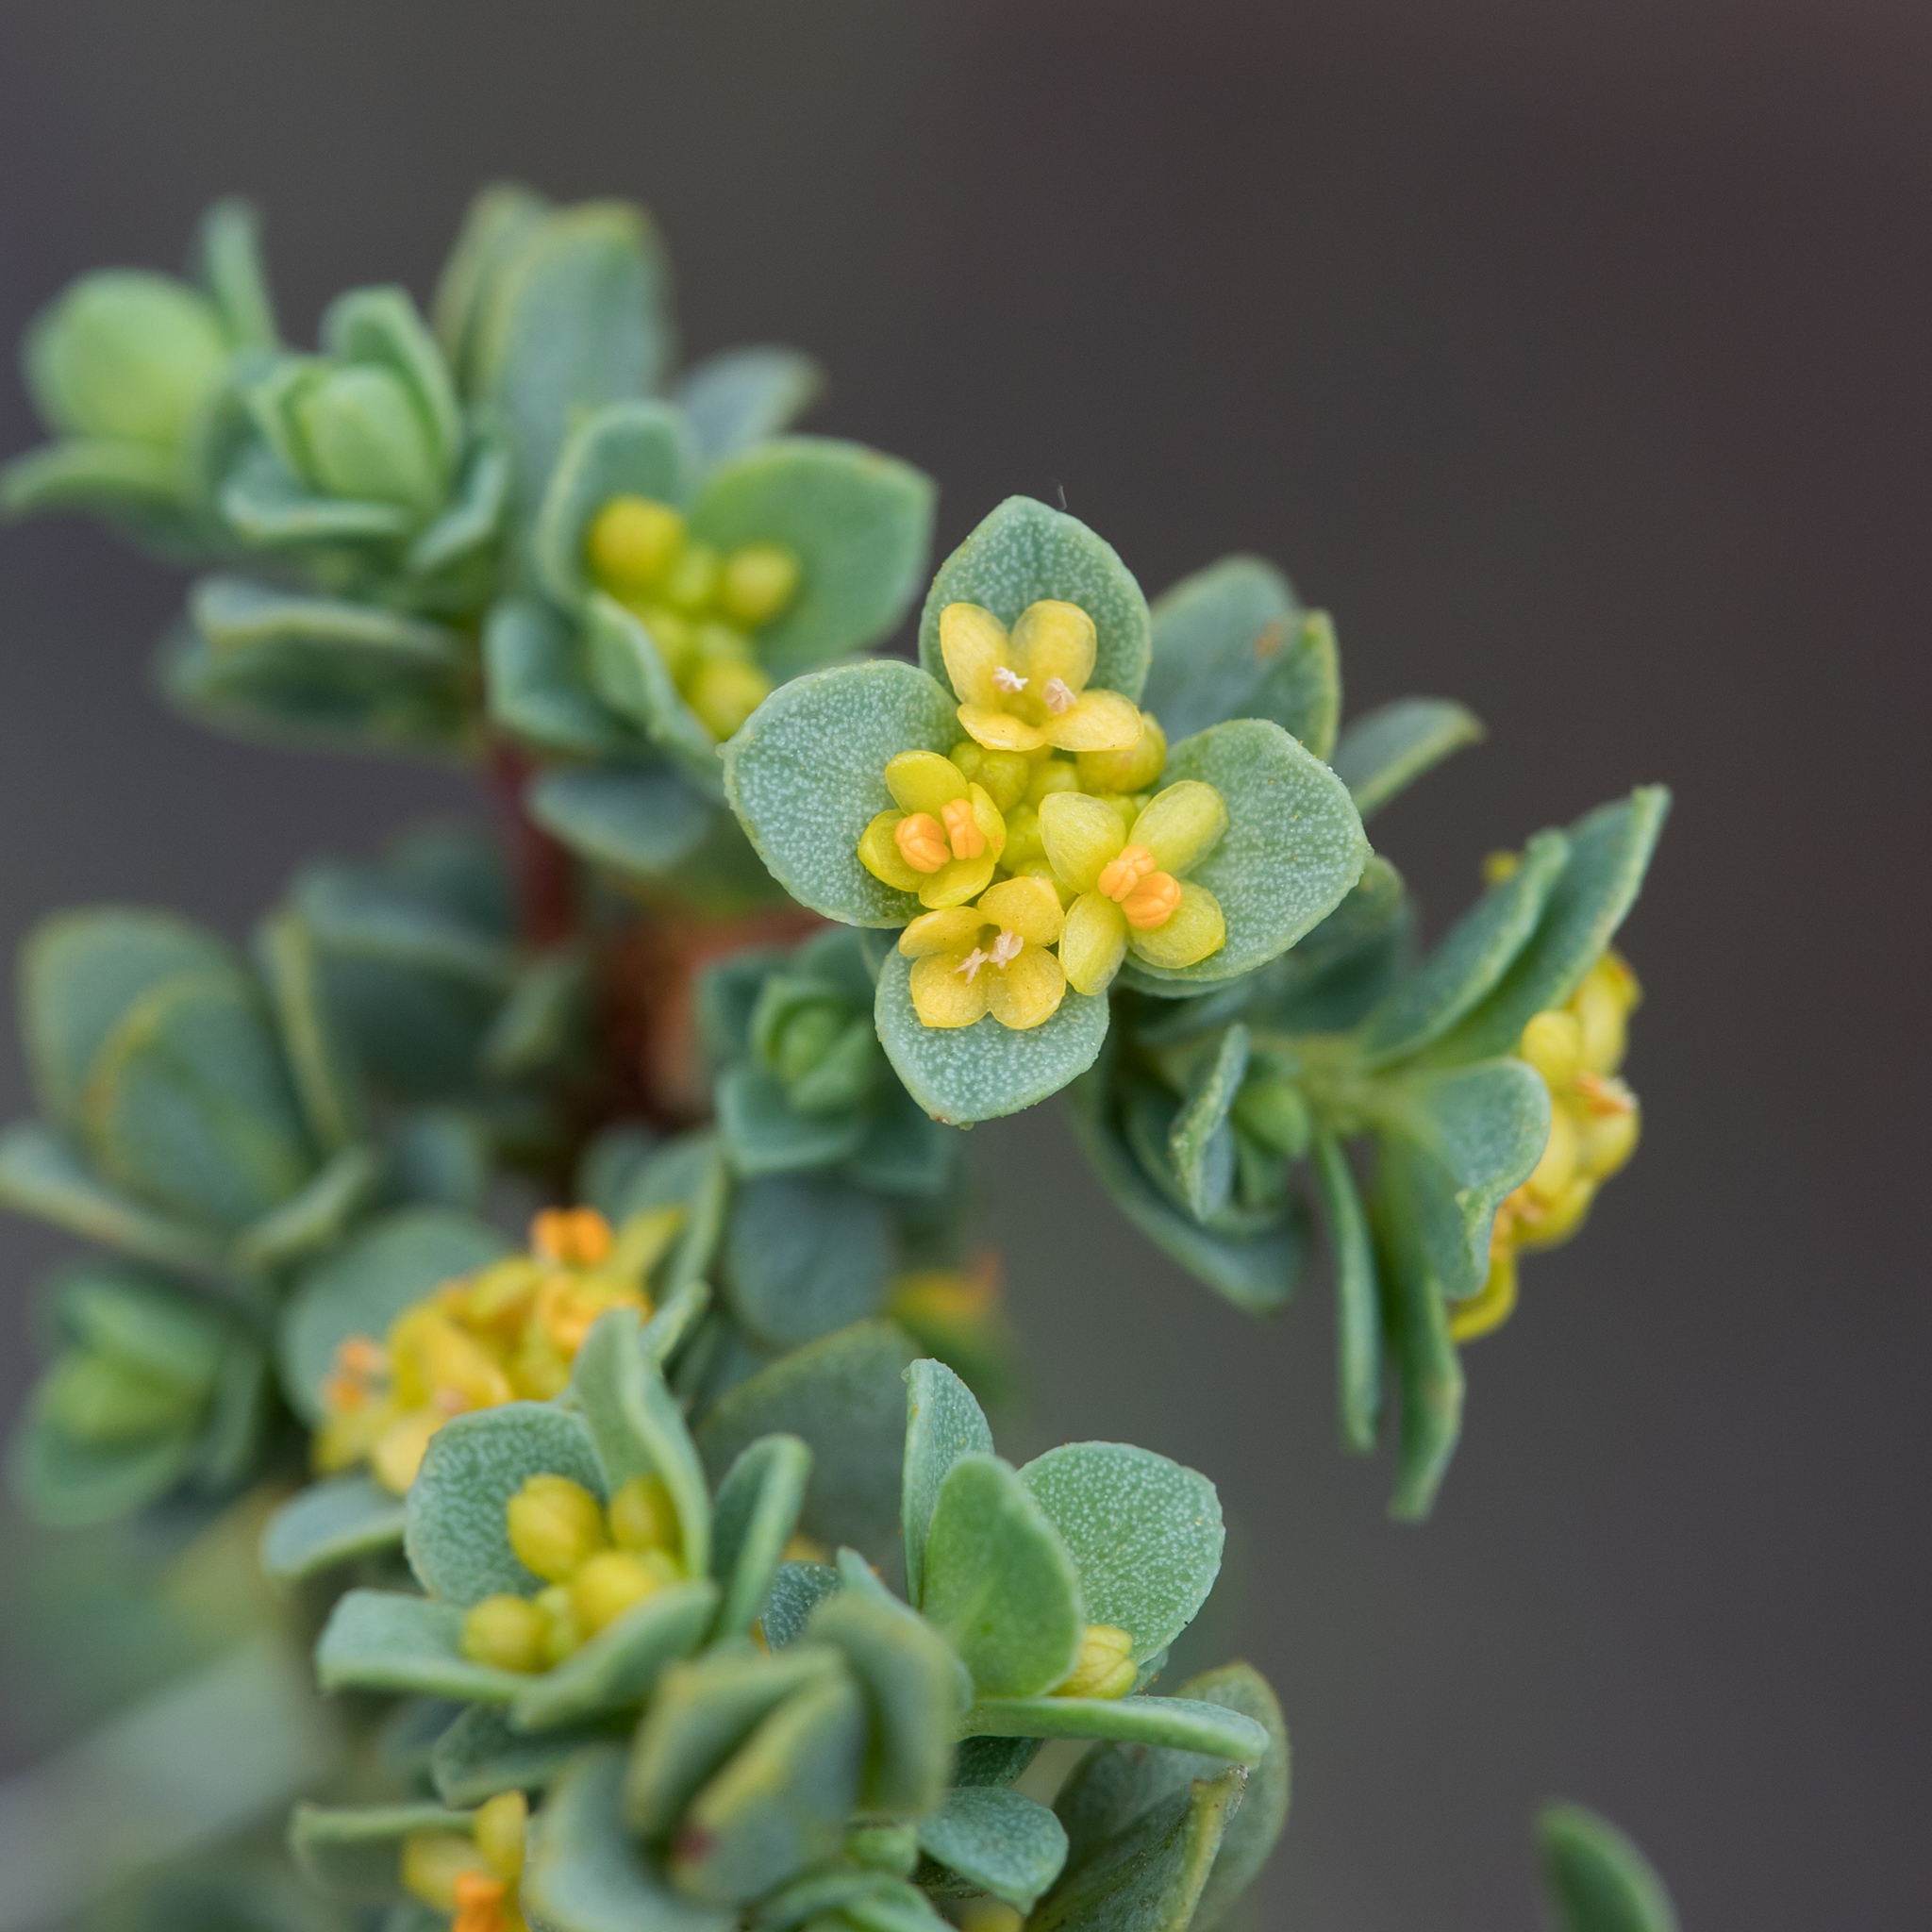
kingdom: Plantae
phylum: Tracheophyta
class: Magnoliopsida
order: Malvales
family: Thymelaeaceae
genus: Pimelea
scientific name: Pimelea serpyllifolia
